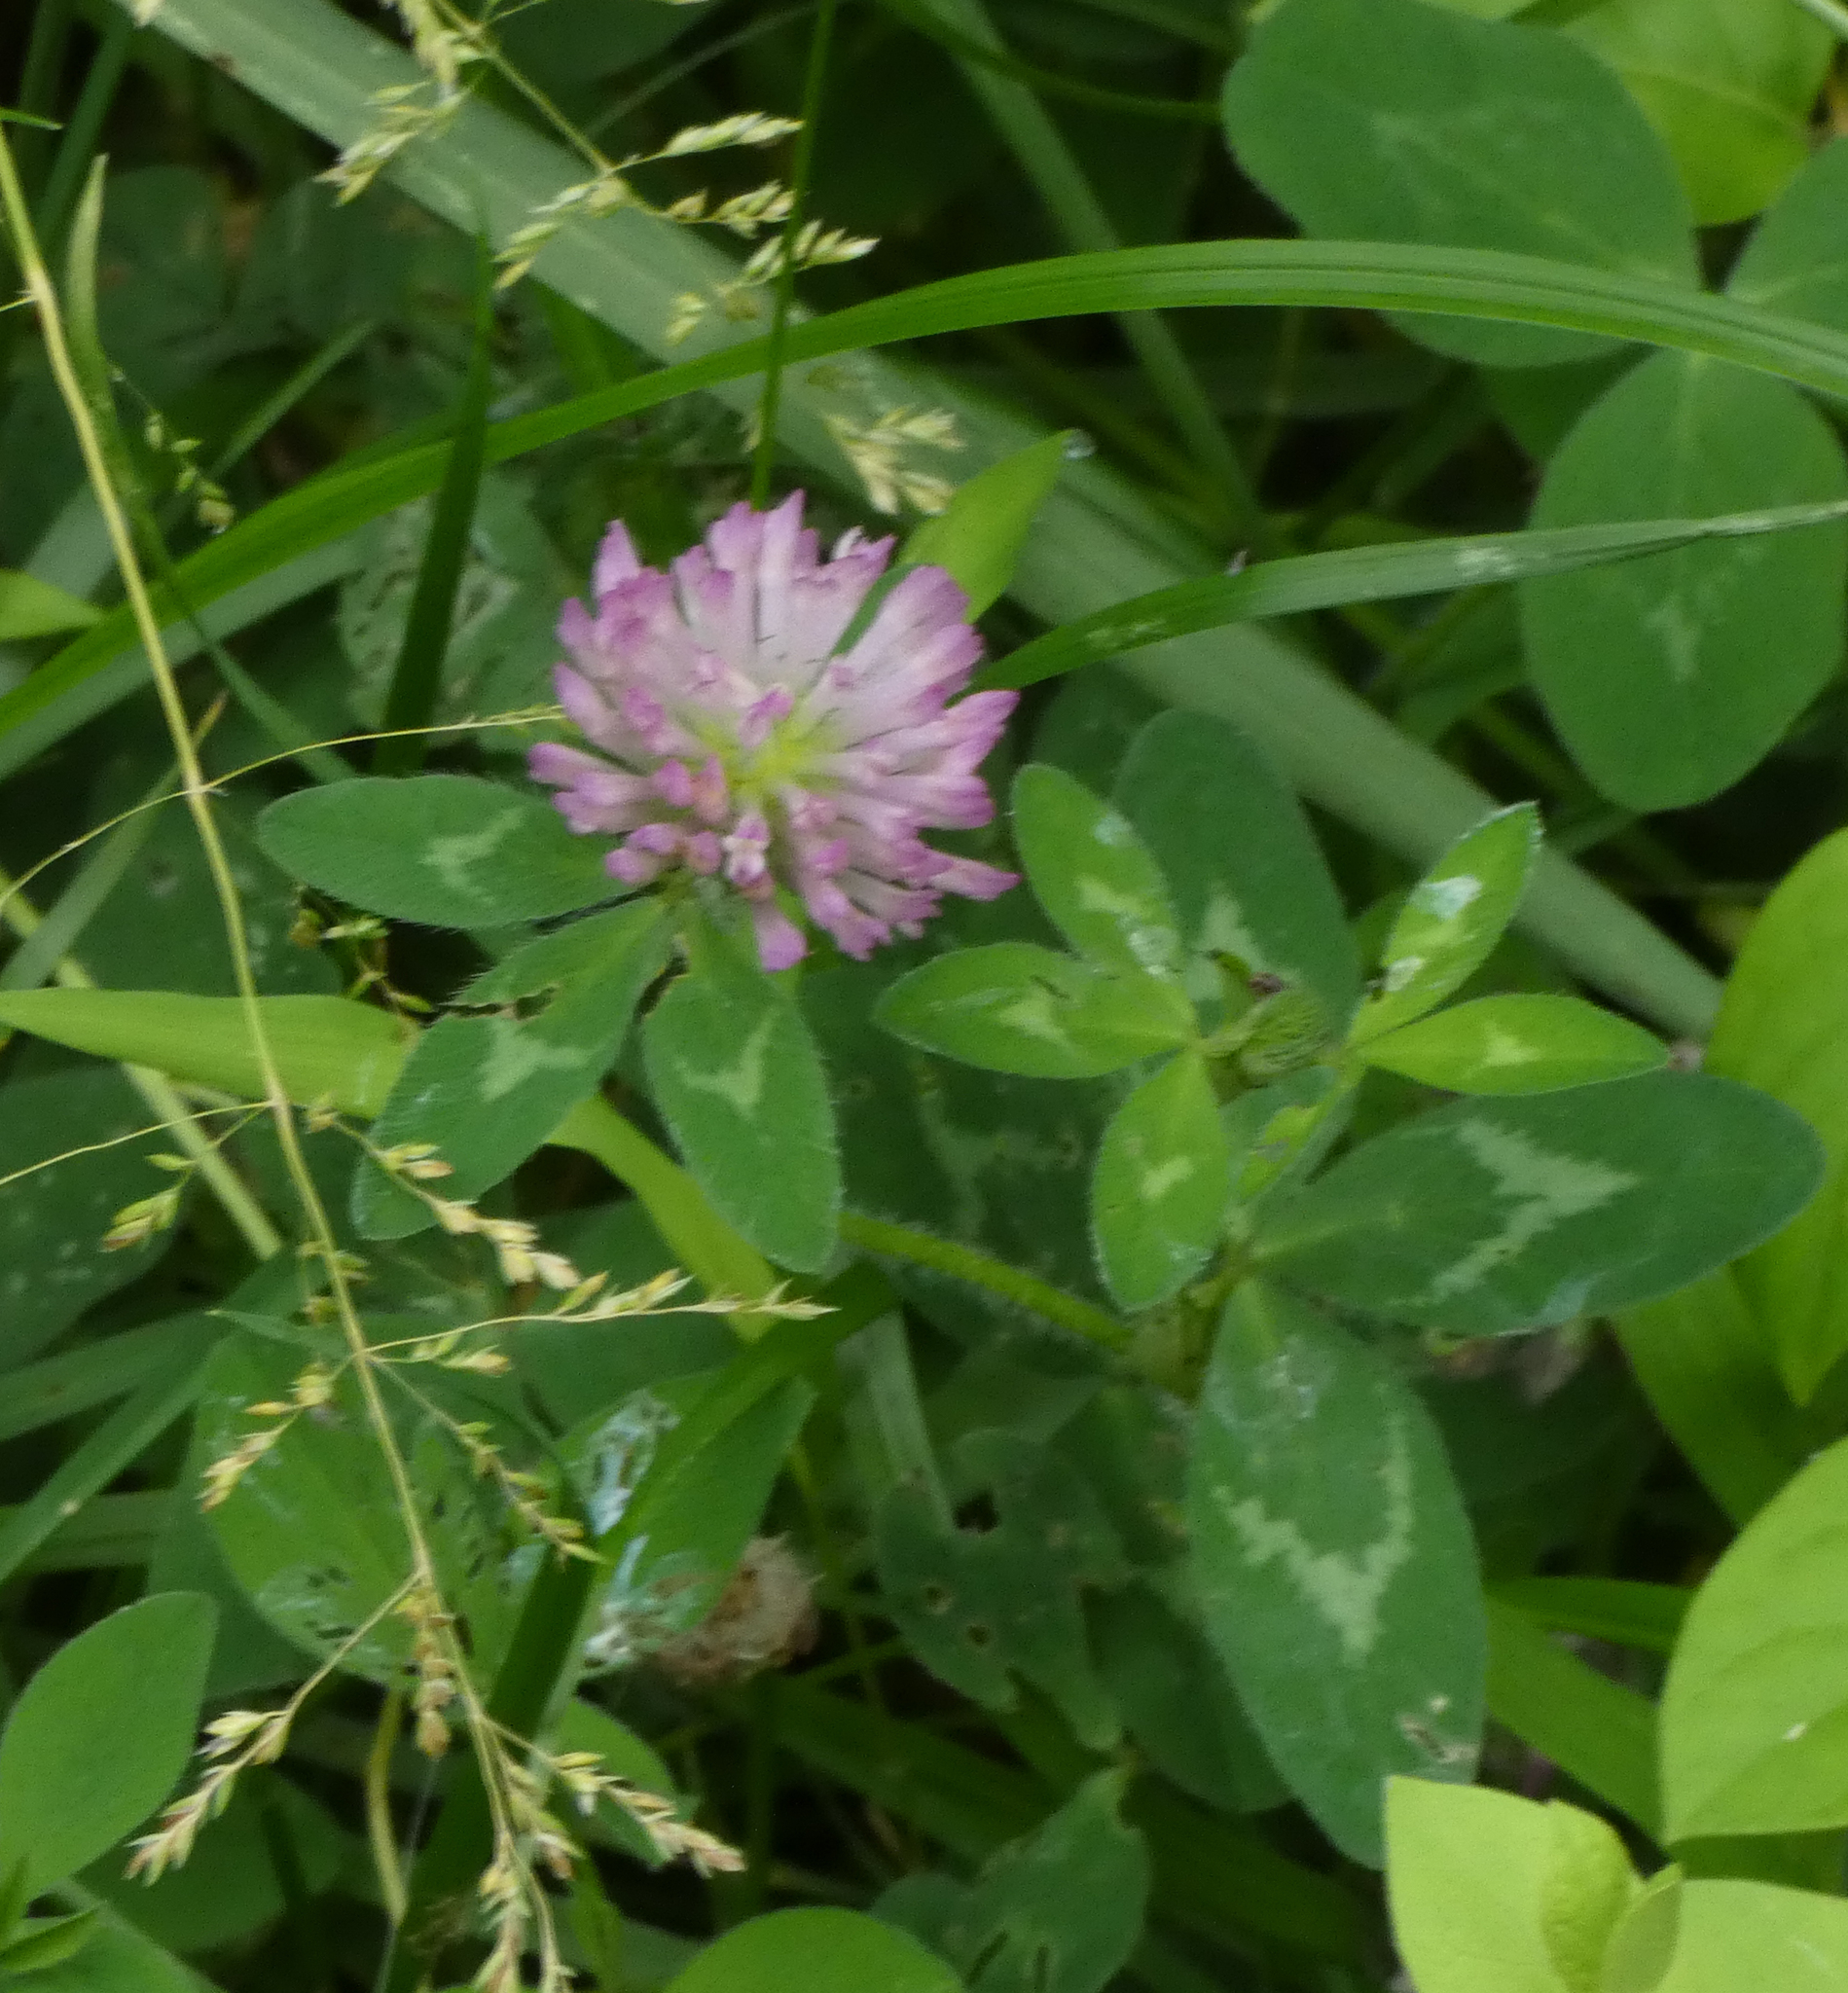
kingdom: Plantae
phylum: Tracheophyta
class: Magnoliopsida
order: Fabales
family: Fabaceae
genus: Trifolium
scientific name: Trifolium pratense
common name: Red clover
